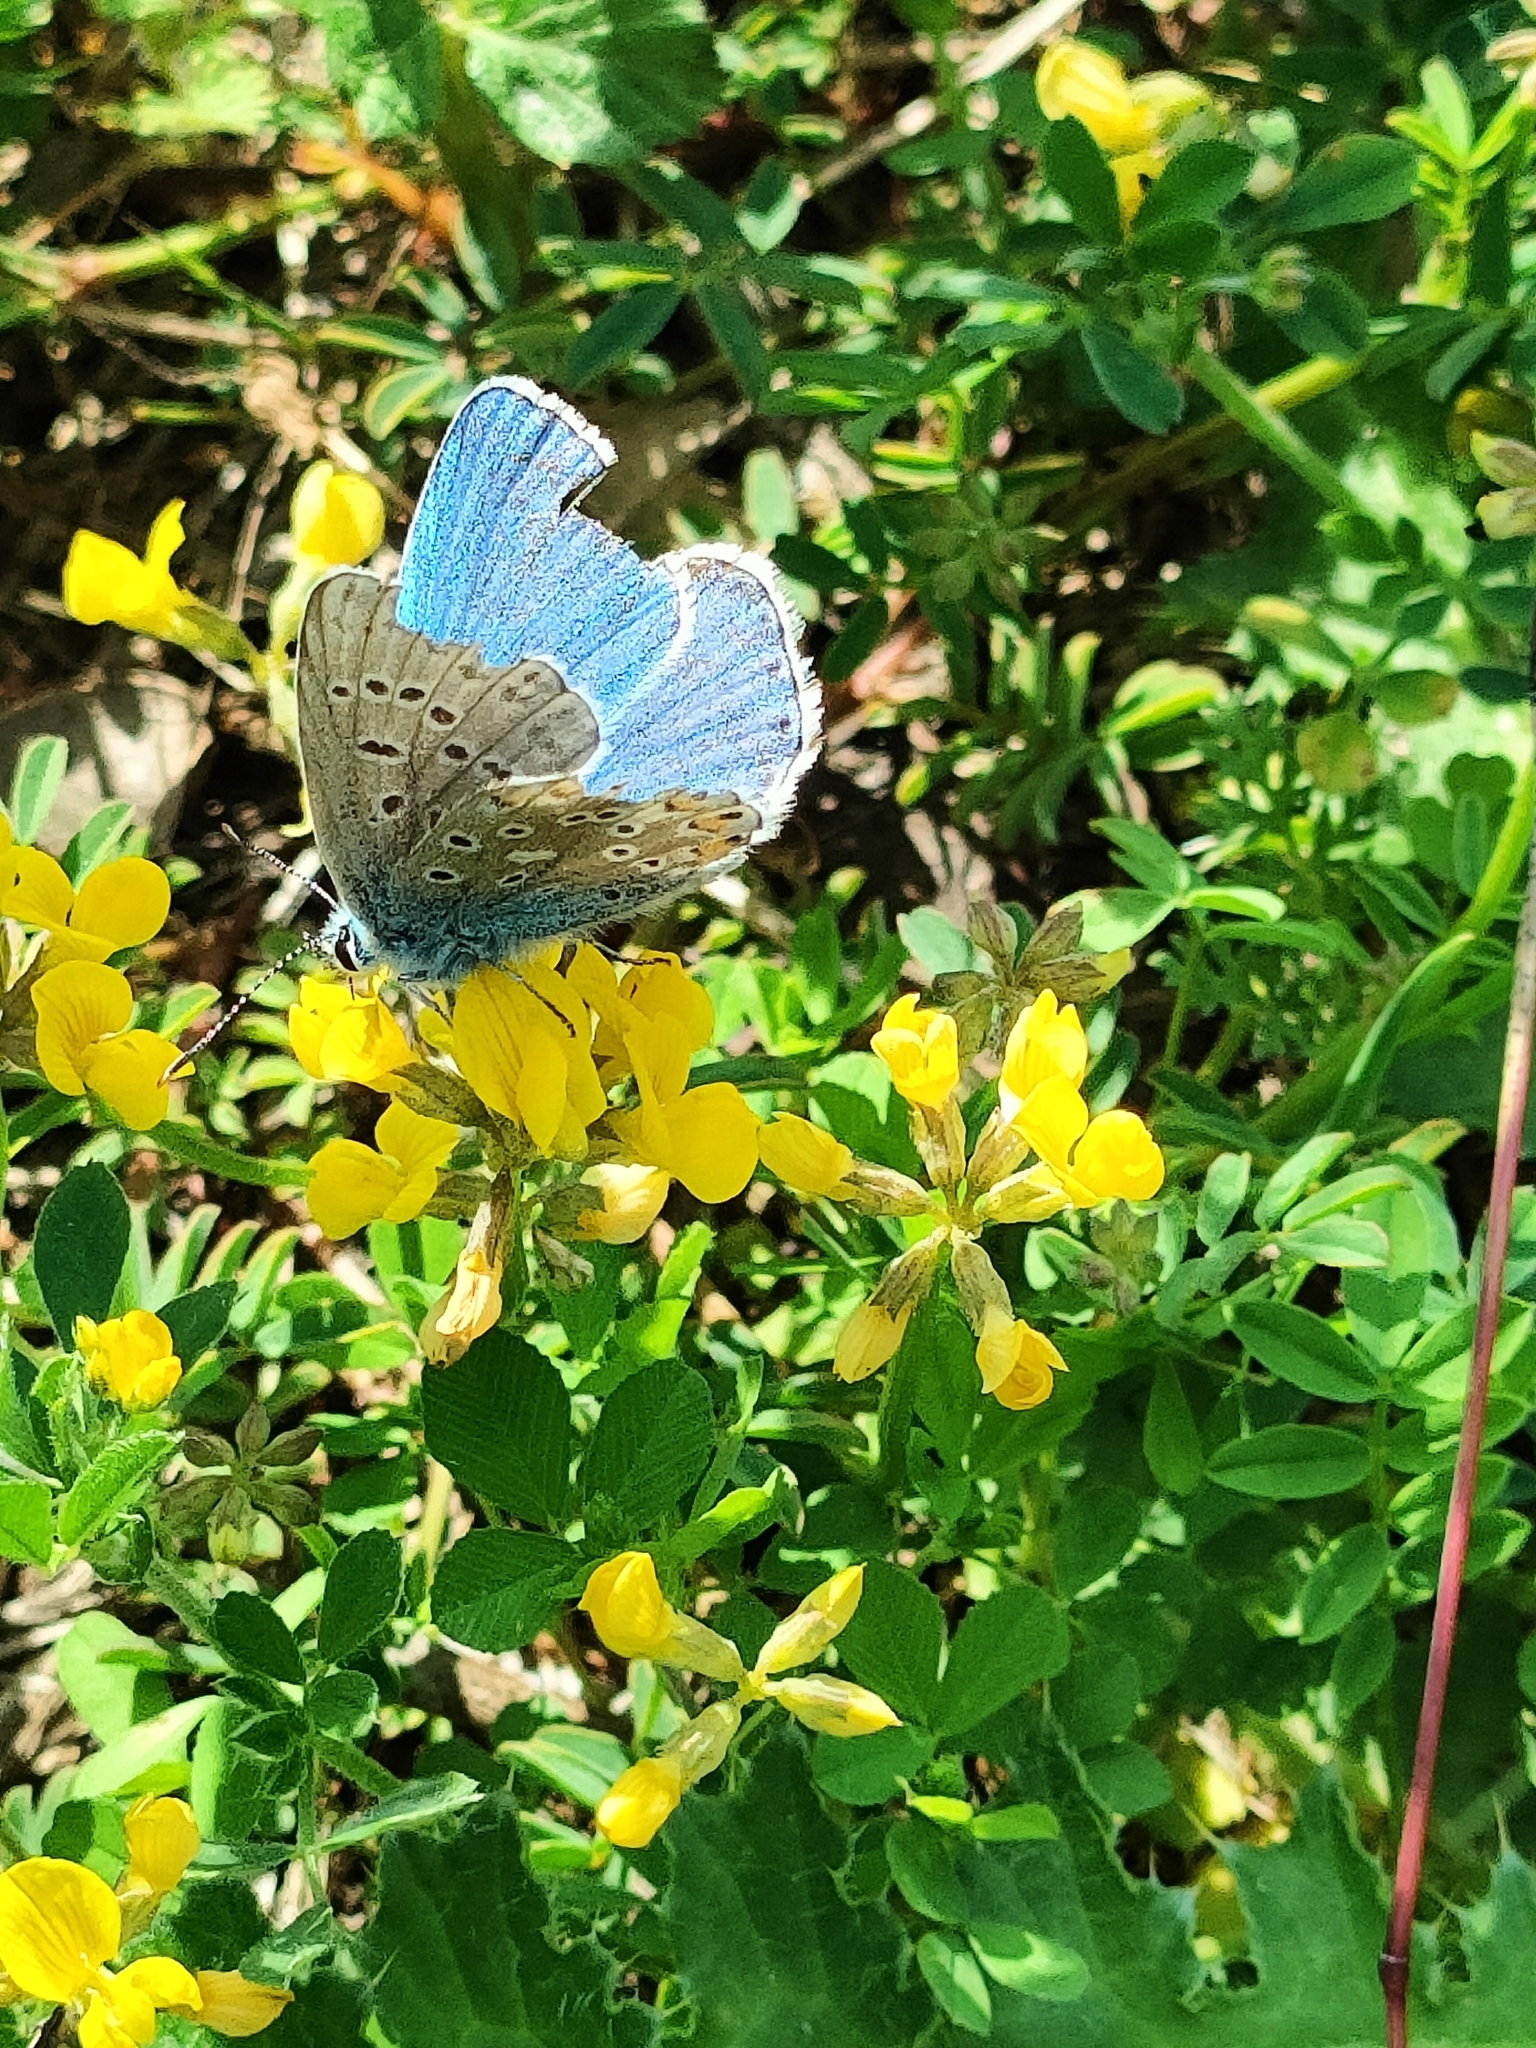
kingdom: Animalia
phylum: Arthropoda
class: Insecta
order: Lepidoptera
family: Lycaenidae
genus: Lysandra
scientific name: Lysandra bellargus
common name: Adonis blue
